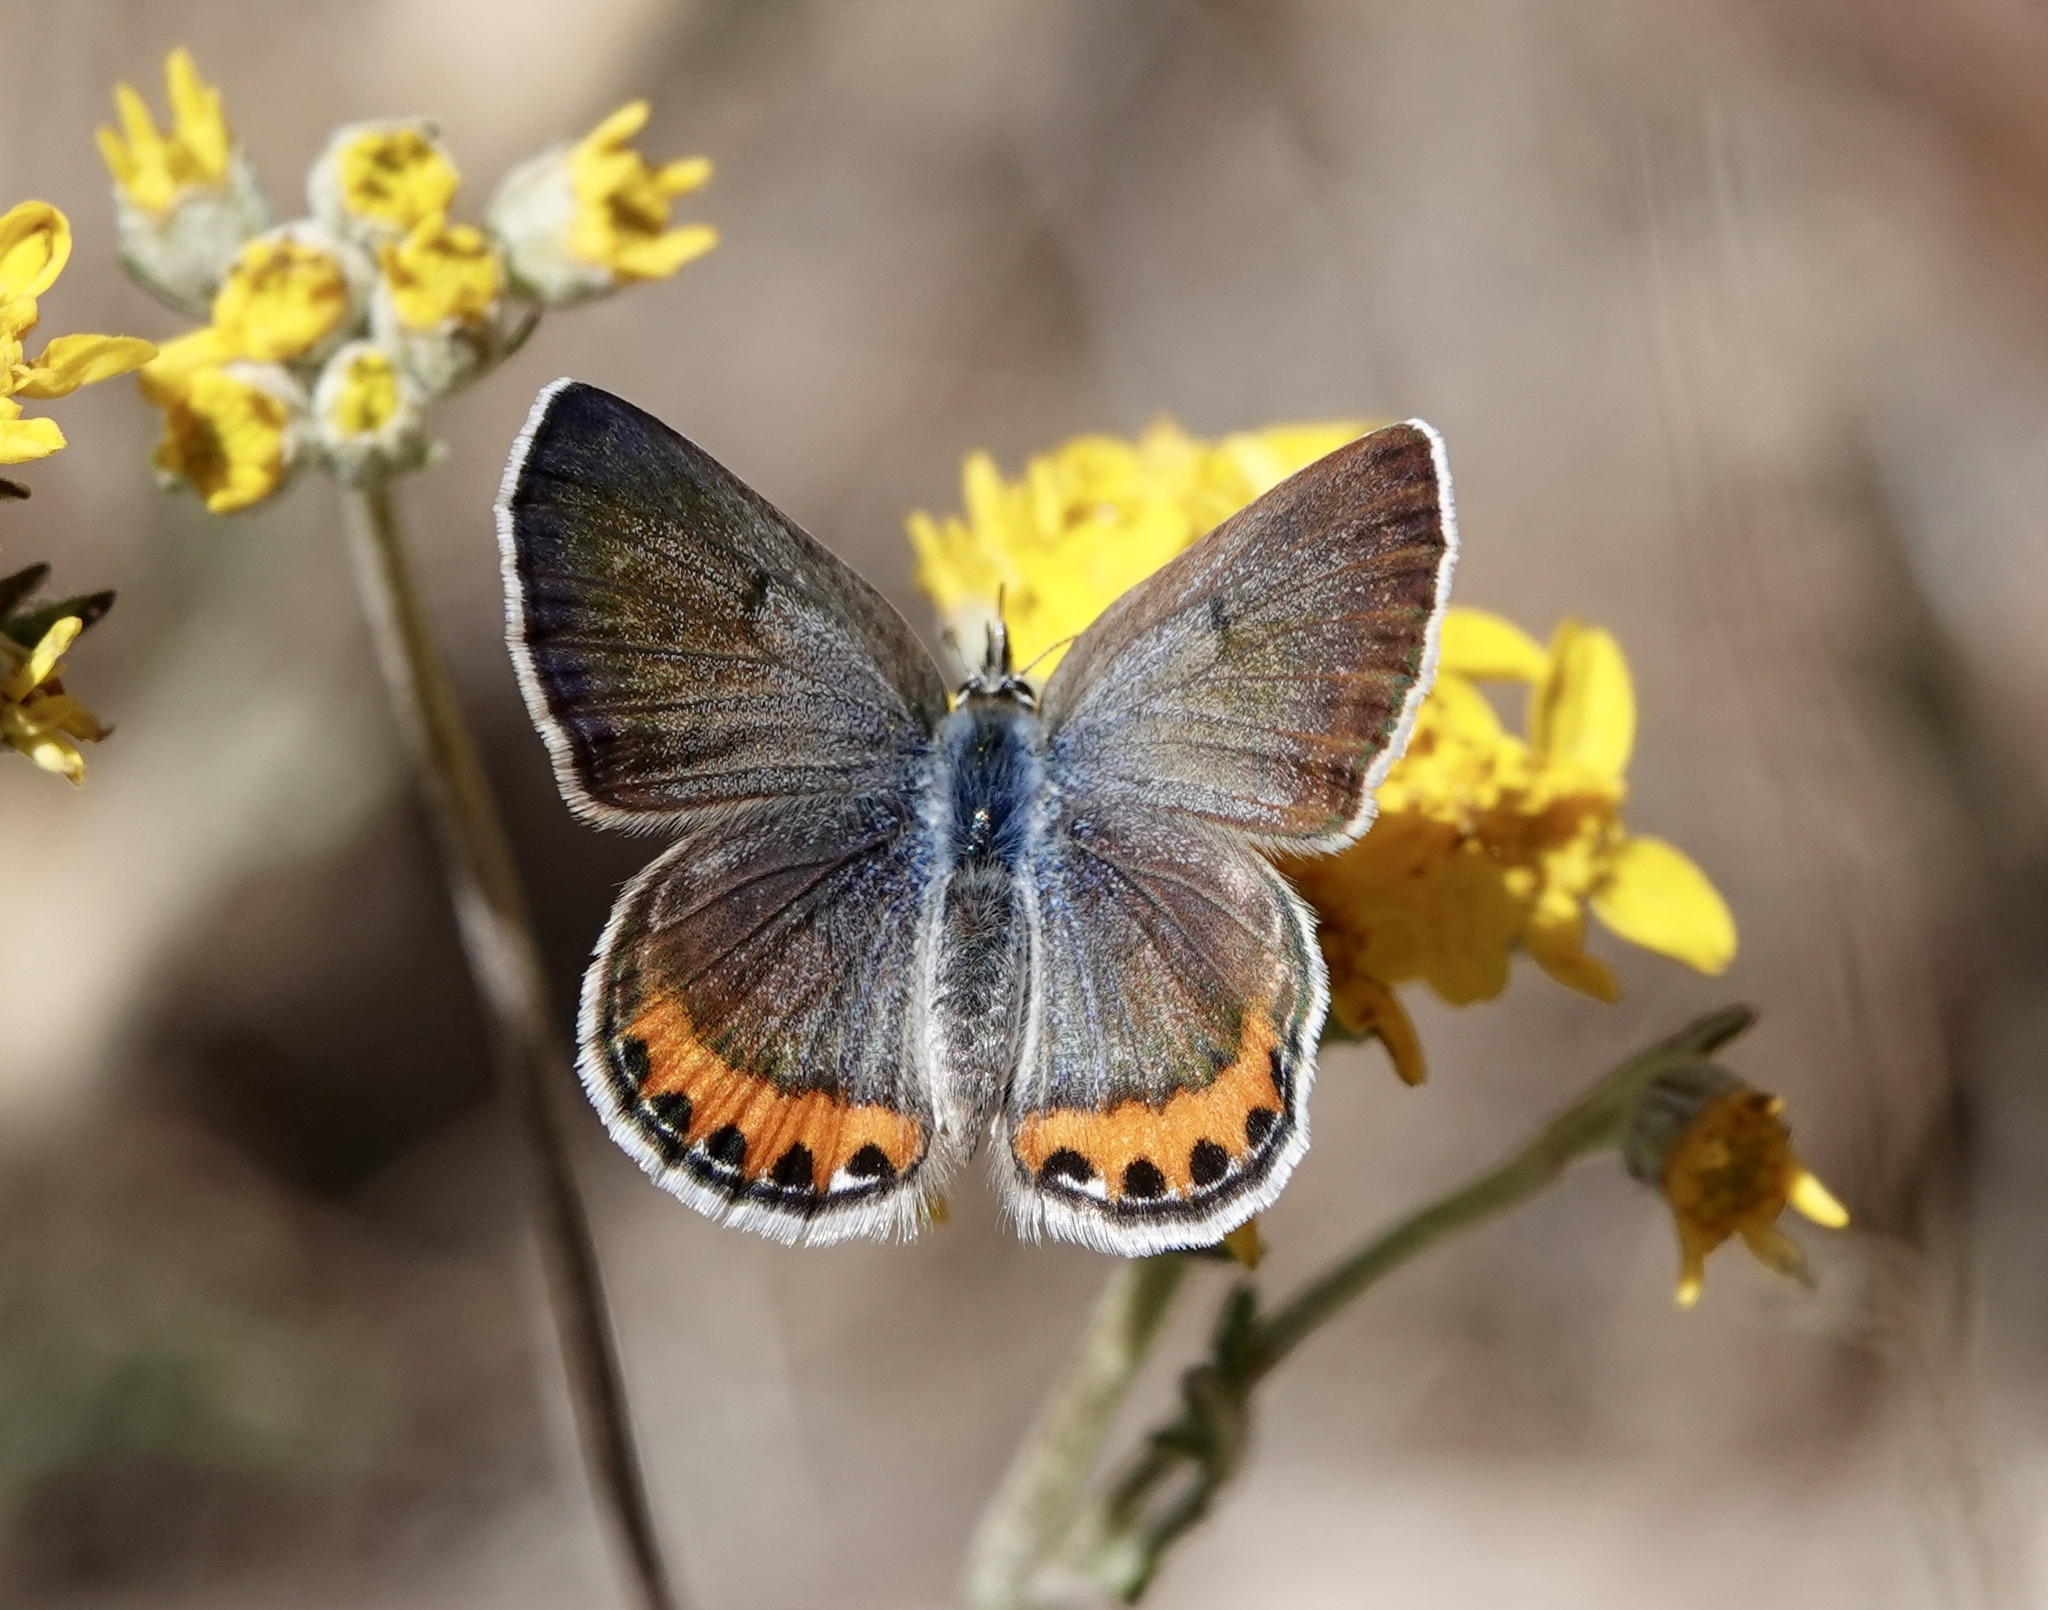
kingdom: Animalia
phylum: Arthropoda
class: Insecta
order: Lepidoptera
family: Lycaenidae
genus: Icaricia
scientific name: Icaricia lupini
